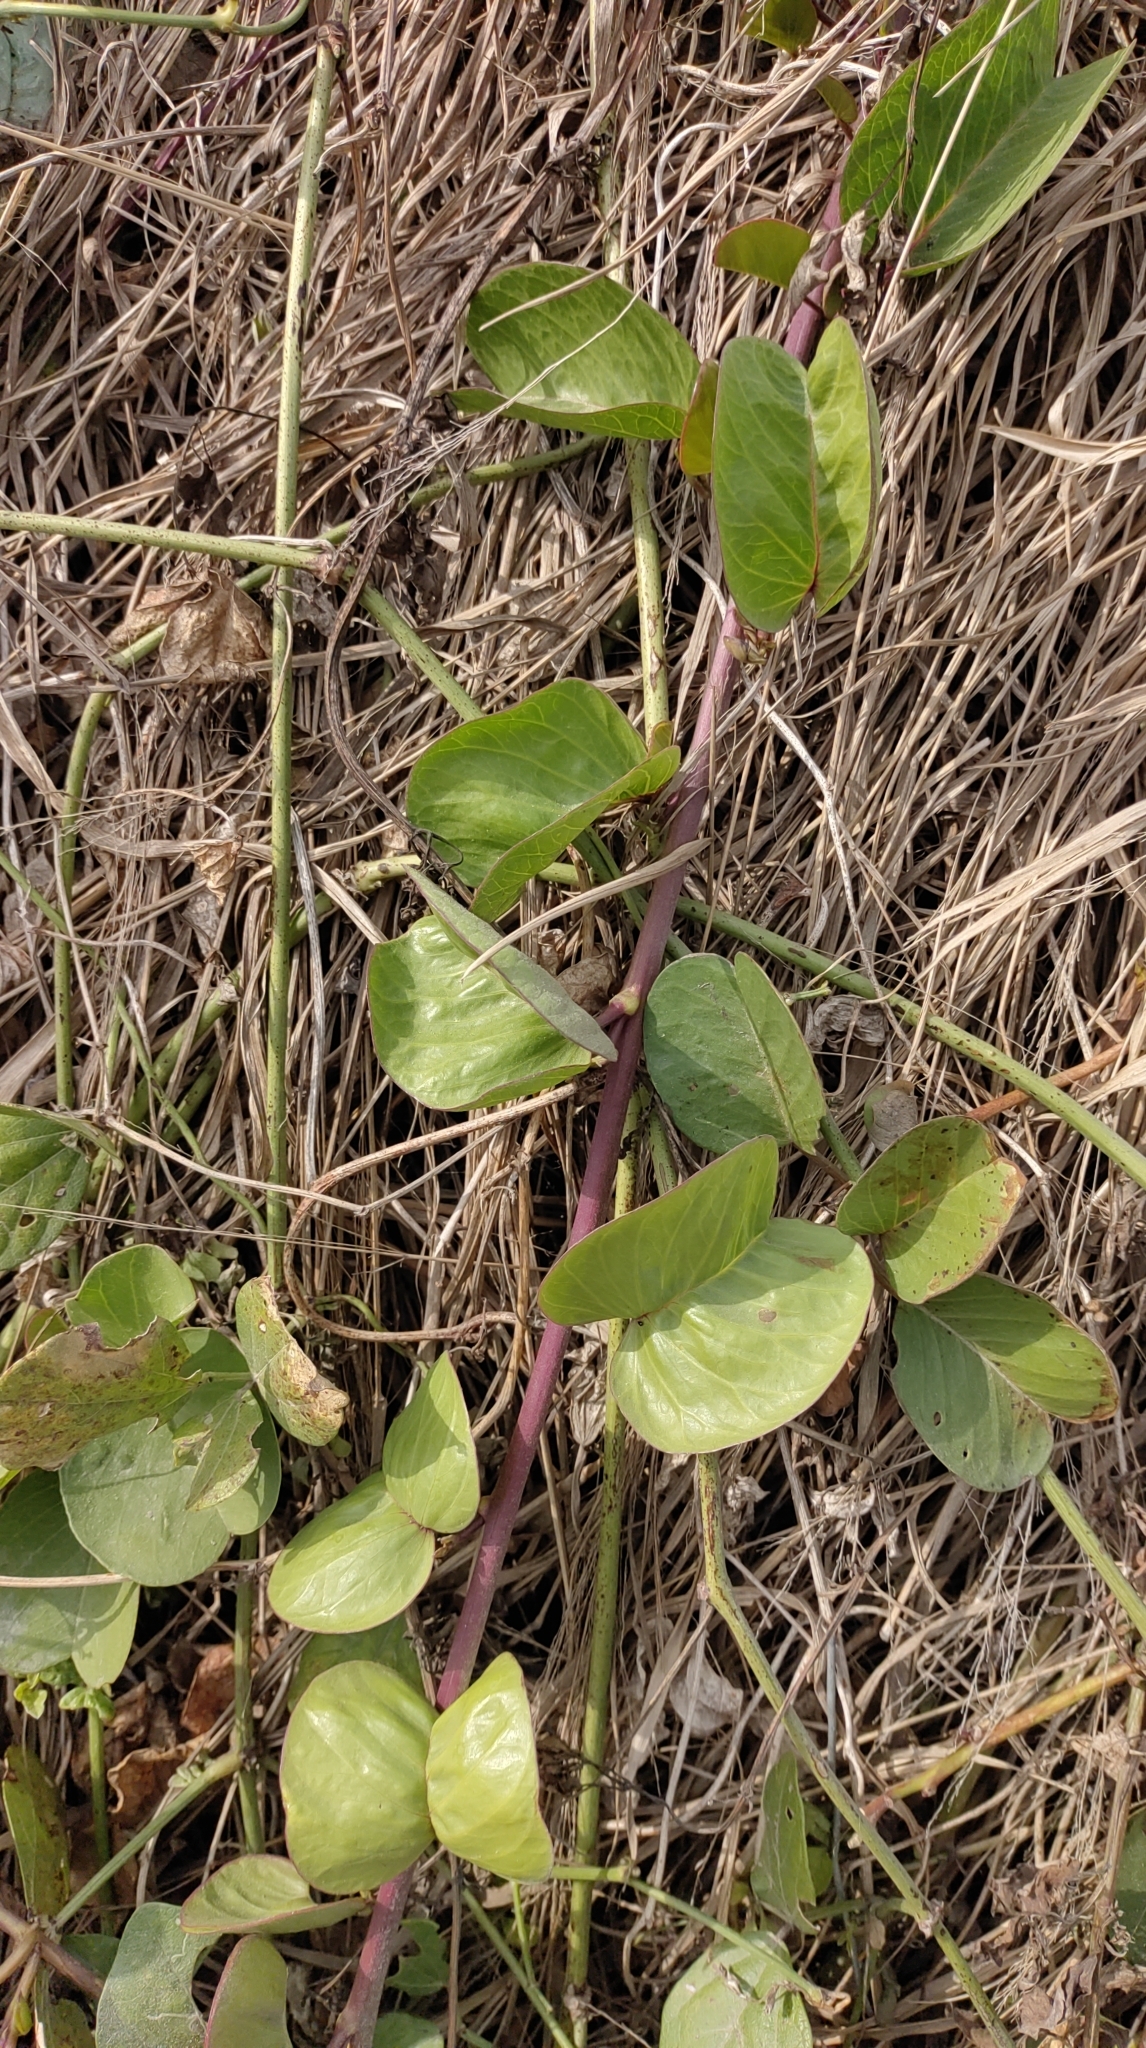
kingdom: Plantae
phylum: Tracheophyta
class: Magnoliopsida
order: Solanales
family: Convolvulaceae
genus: Ipomoea
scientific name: Ipomoea pes-caprae
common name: Beach morning glory
